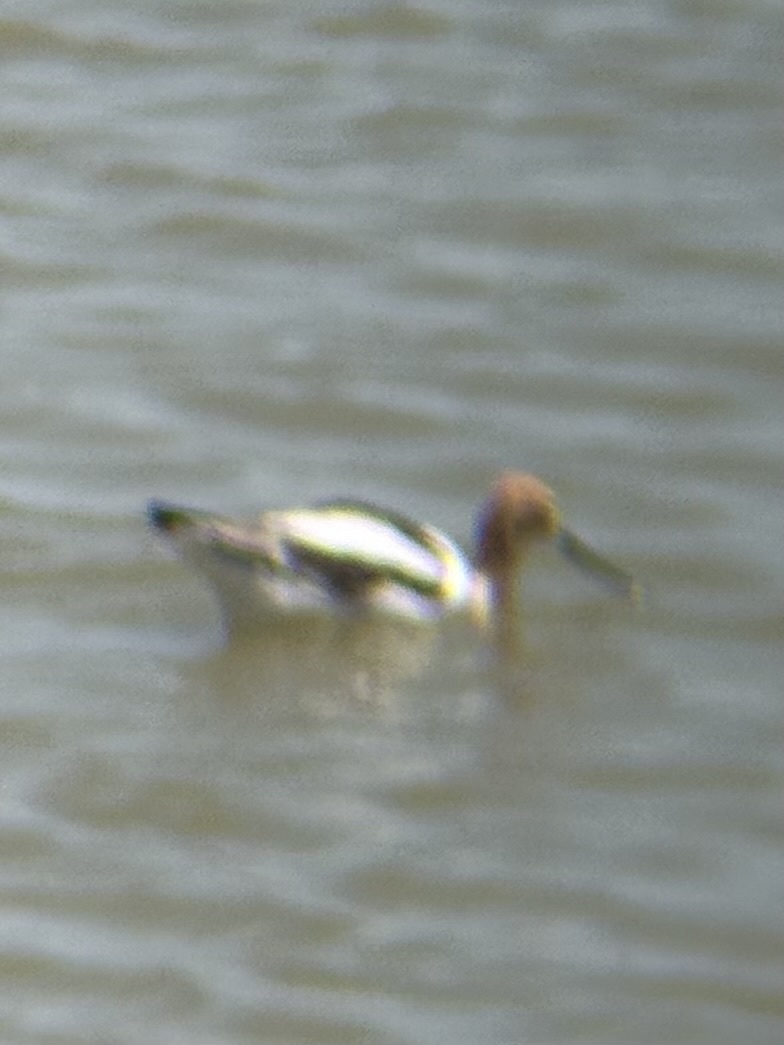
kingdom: Animalia
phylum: Chordata
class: Aves
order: Charadriiformes
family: Recurvirostridae
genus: Recurvirostra
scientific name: Recurvirostra americana
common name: American avocet
